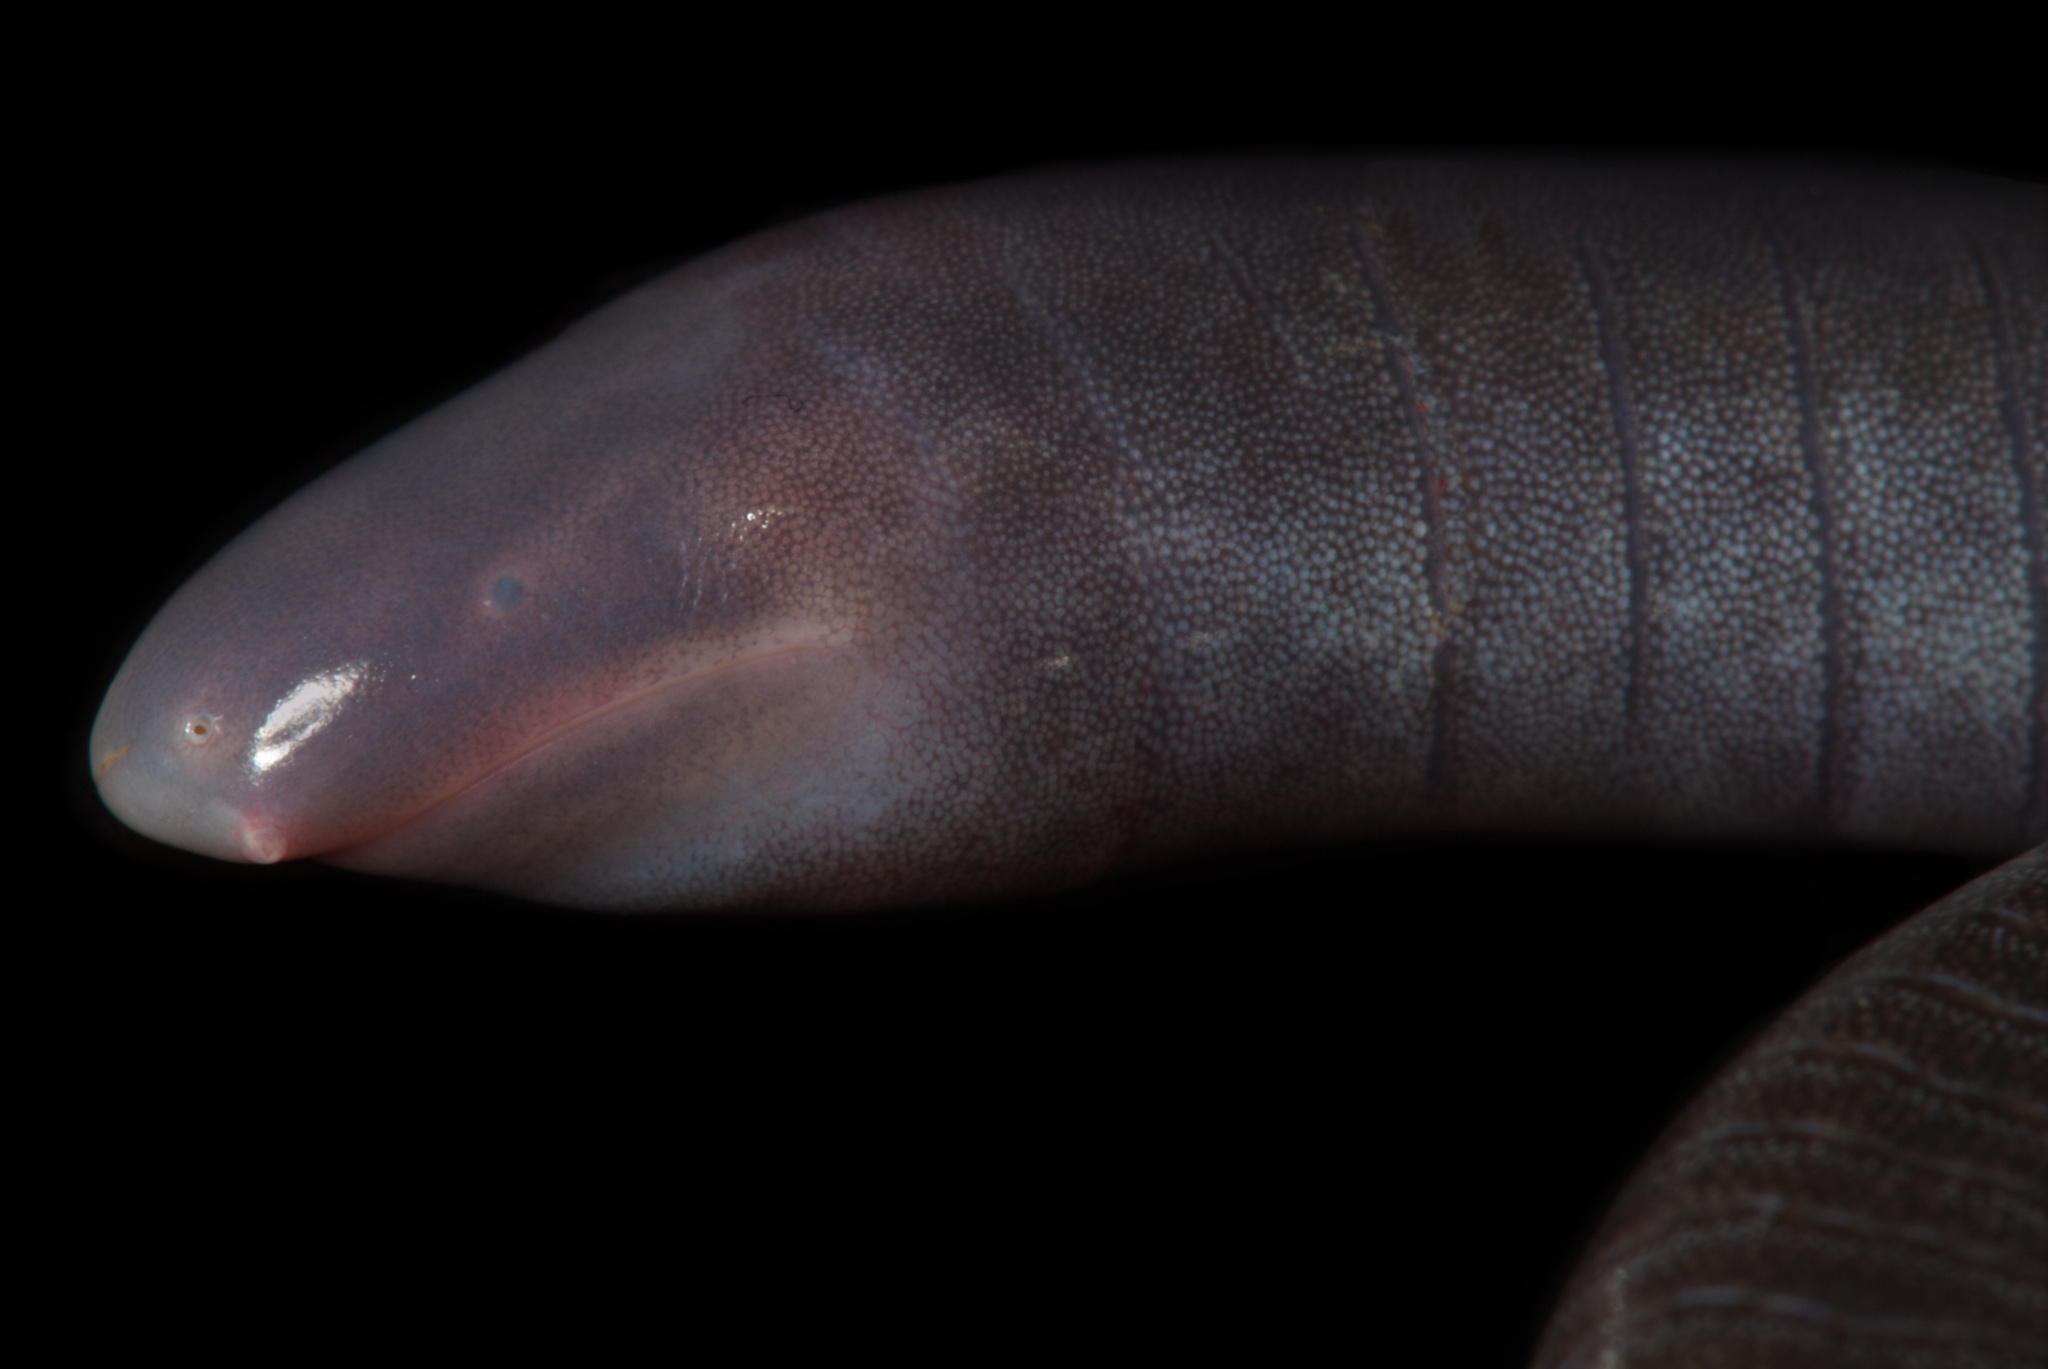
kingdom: Animalia
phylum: Chordata
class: Amphibia
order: Gymnophiona
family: Caeciliidae
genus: Oscaecilia
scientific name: Oscaecilia ochrocephala
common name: Yellow-headed caecilian
